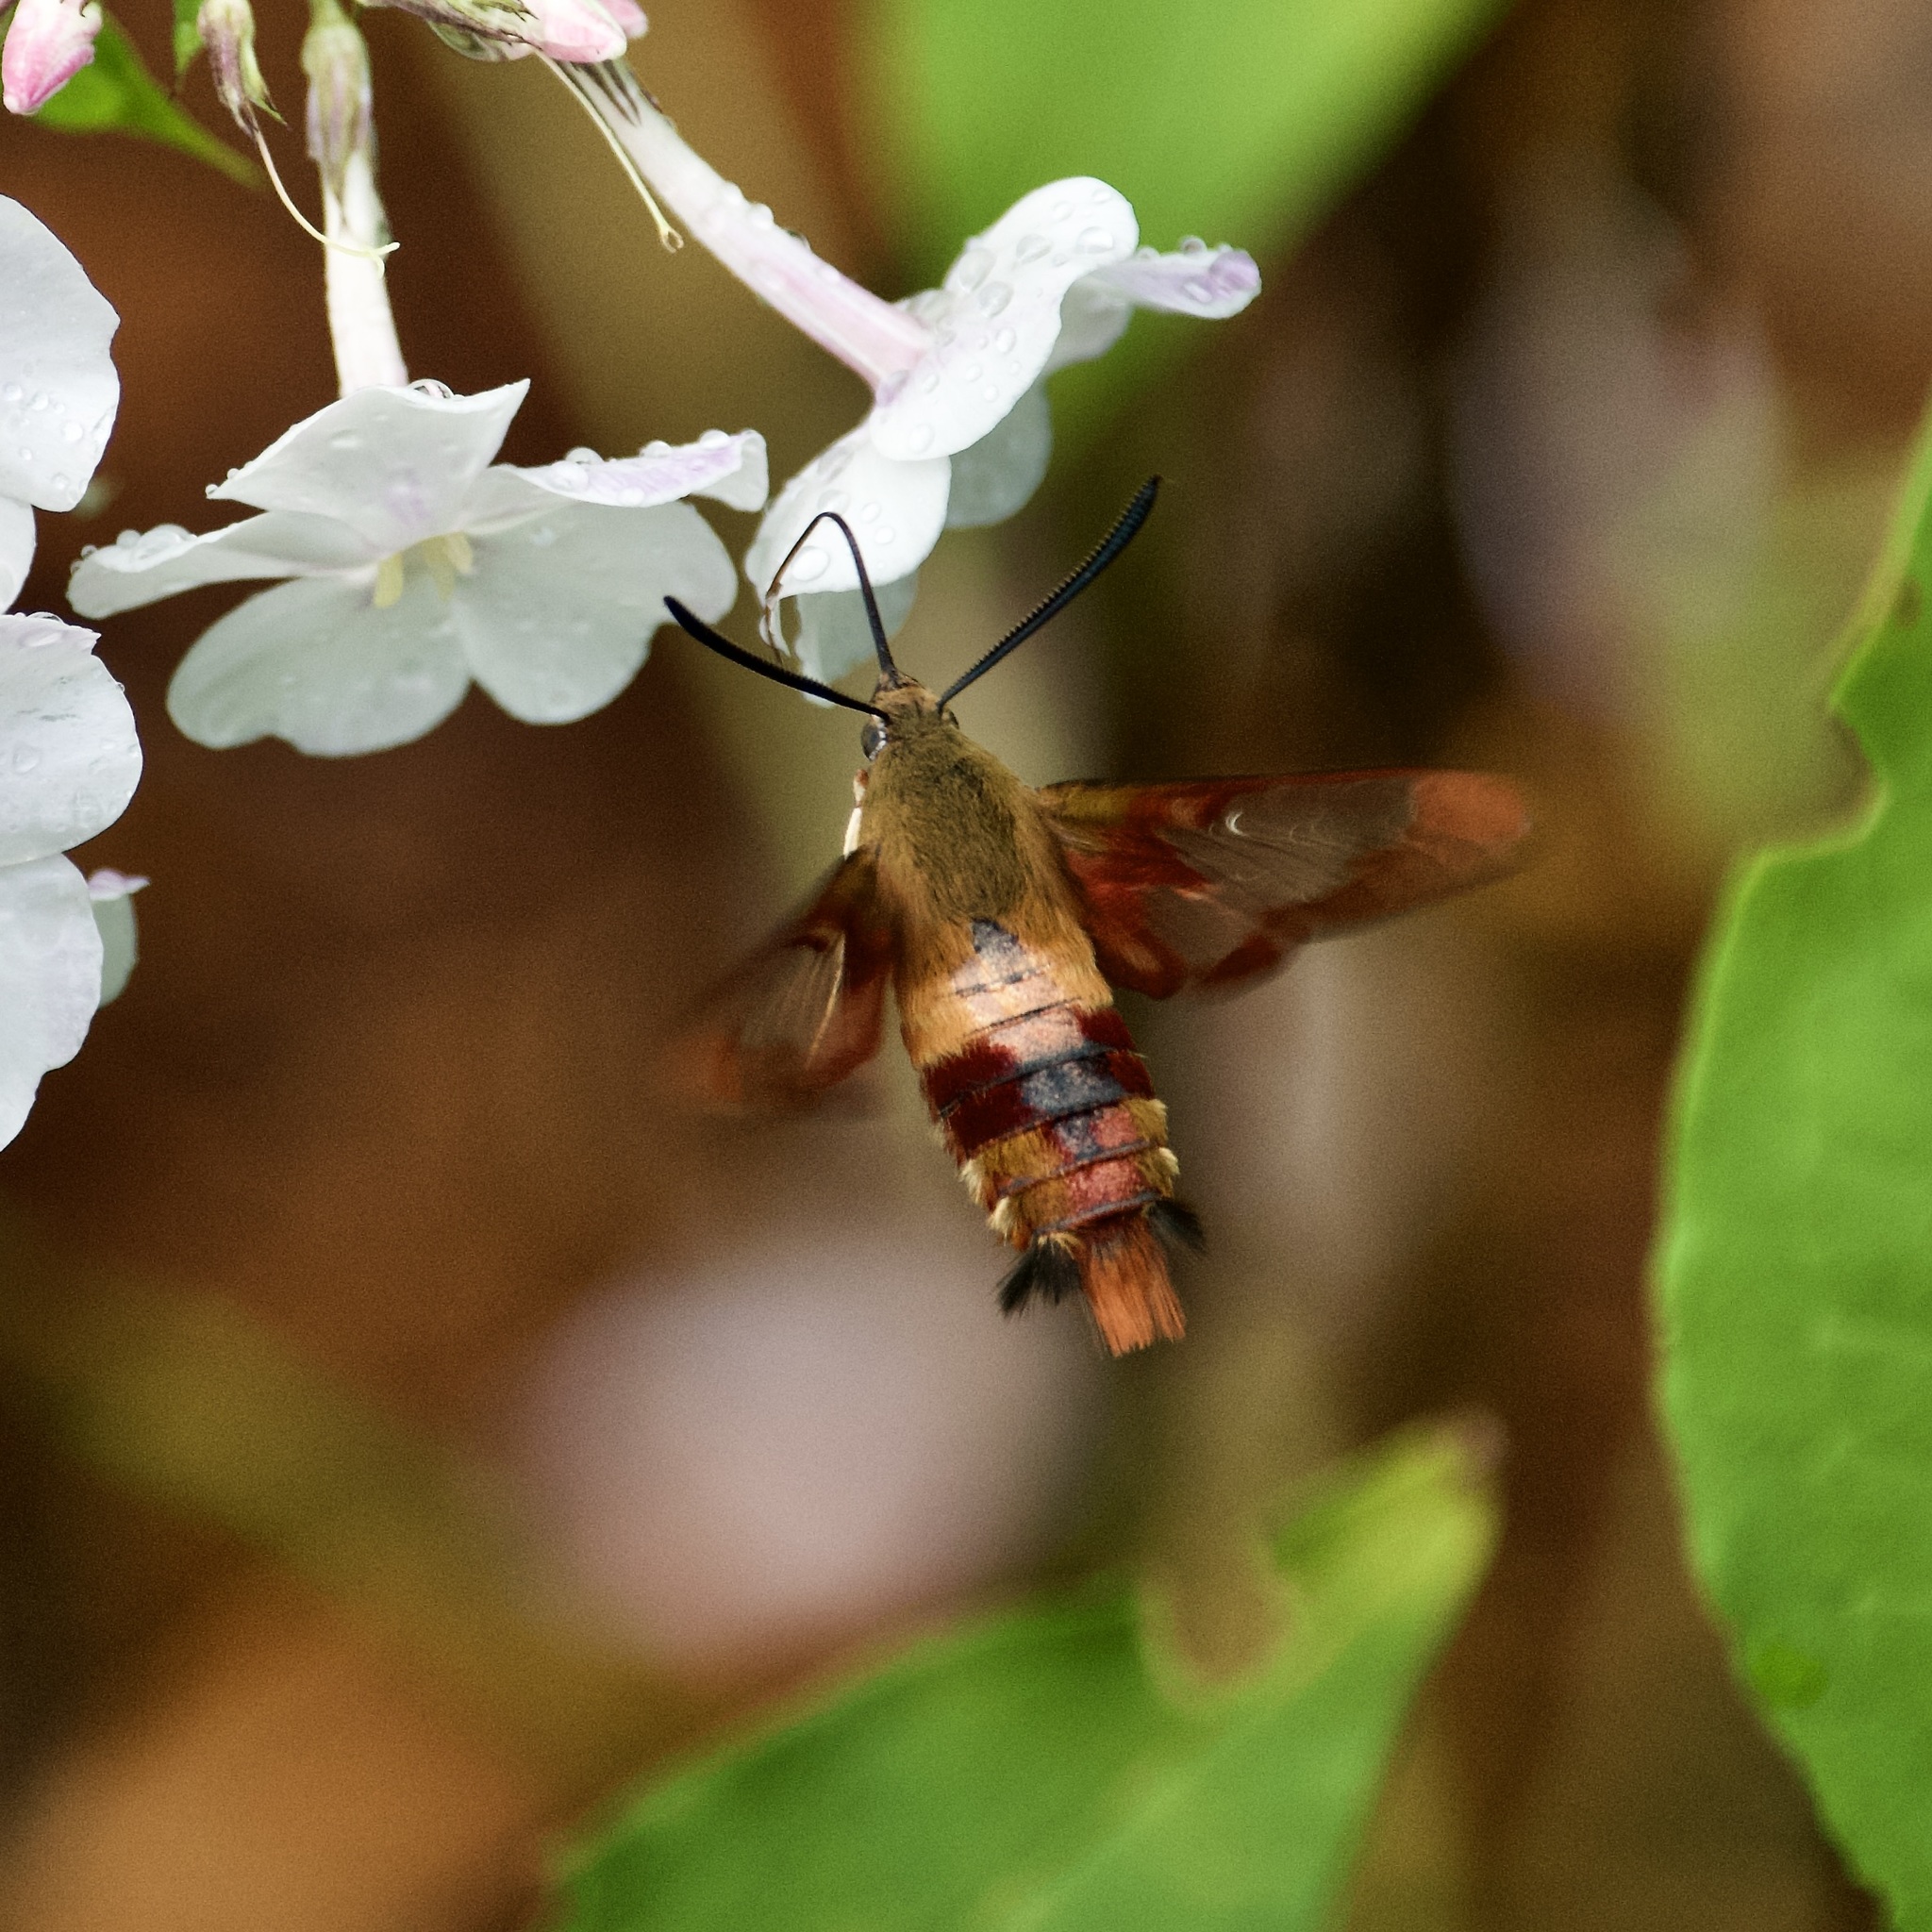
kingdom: Animalia
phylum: Arthropoda
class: Insecta
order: Lepidoptera
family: Sphingidae
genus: Hemaris
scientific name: Hemaris thysbe
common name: Common clear-wing
